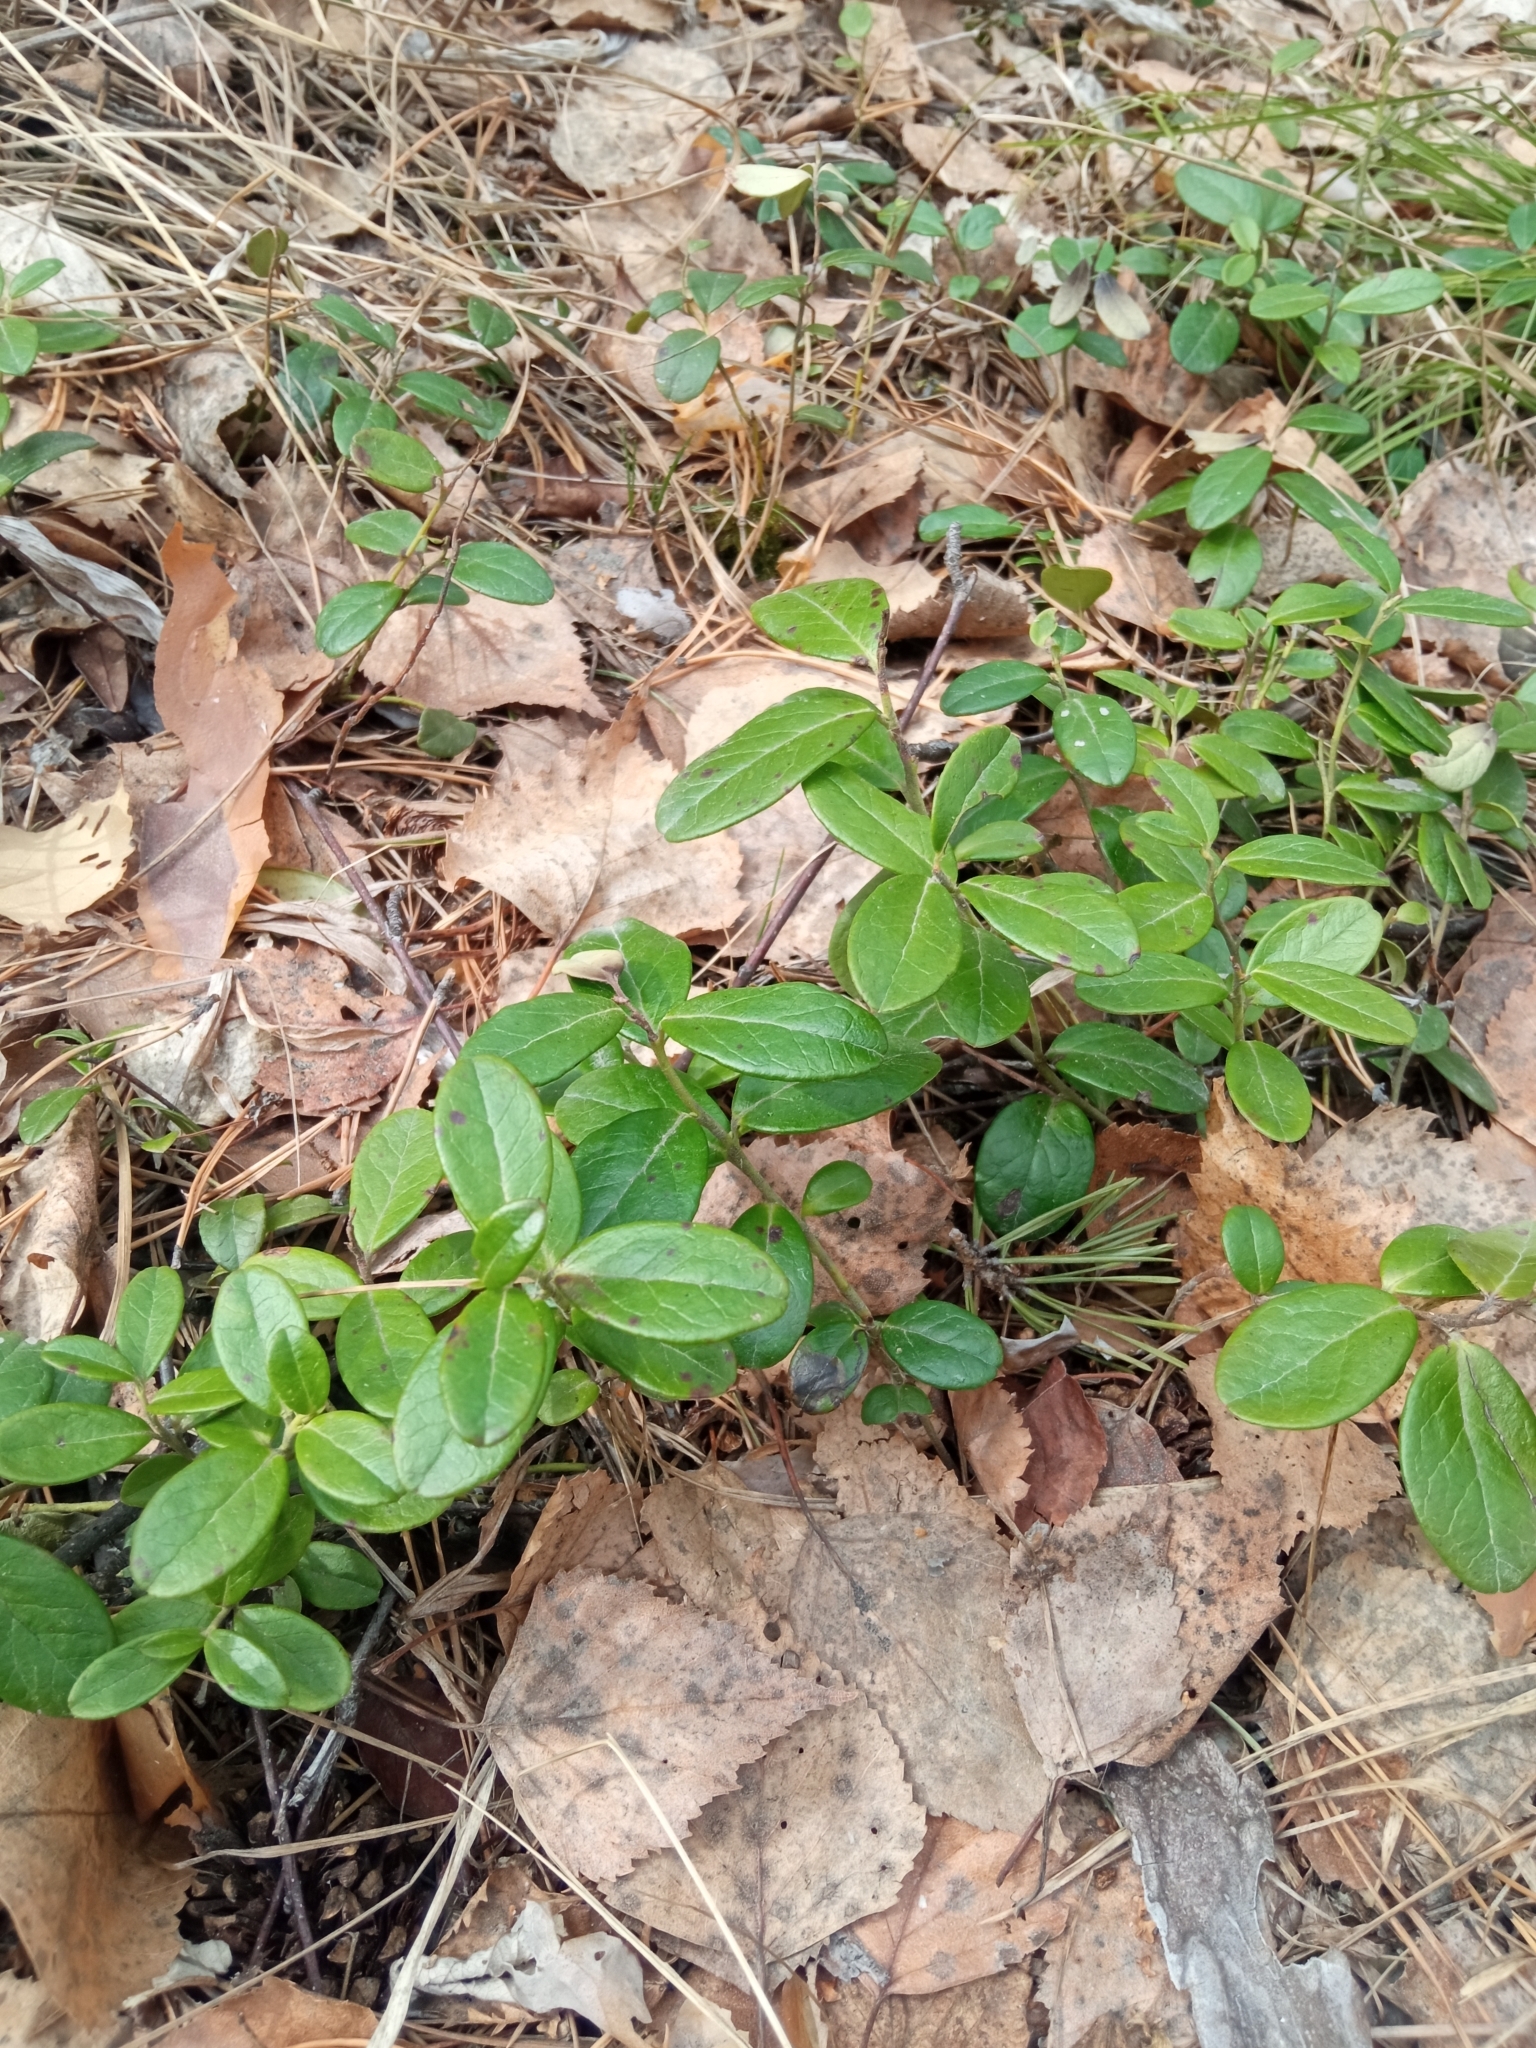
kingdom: Plantae
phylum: Tracheophyta
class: Magnoliopsida
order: Ericales
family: Ericaceae
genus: Vaccinium
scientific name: Vaccinium vitis-idaea
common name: Cowberry
